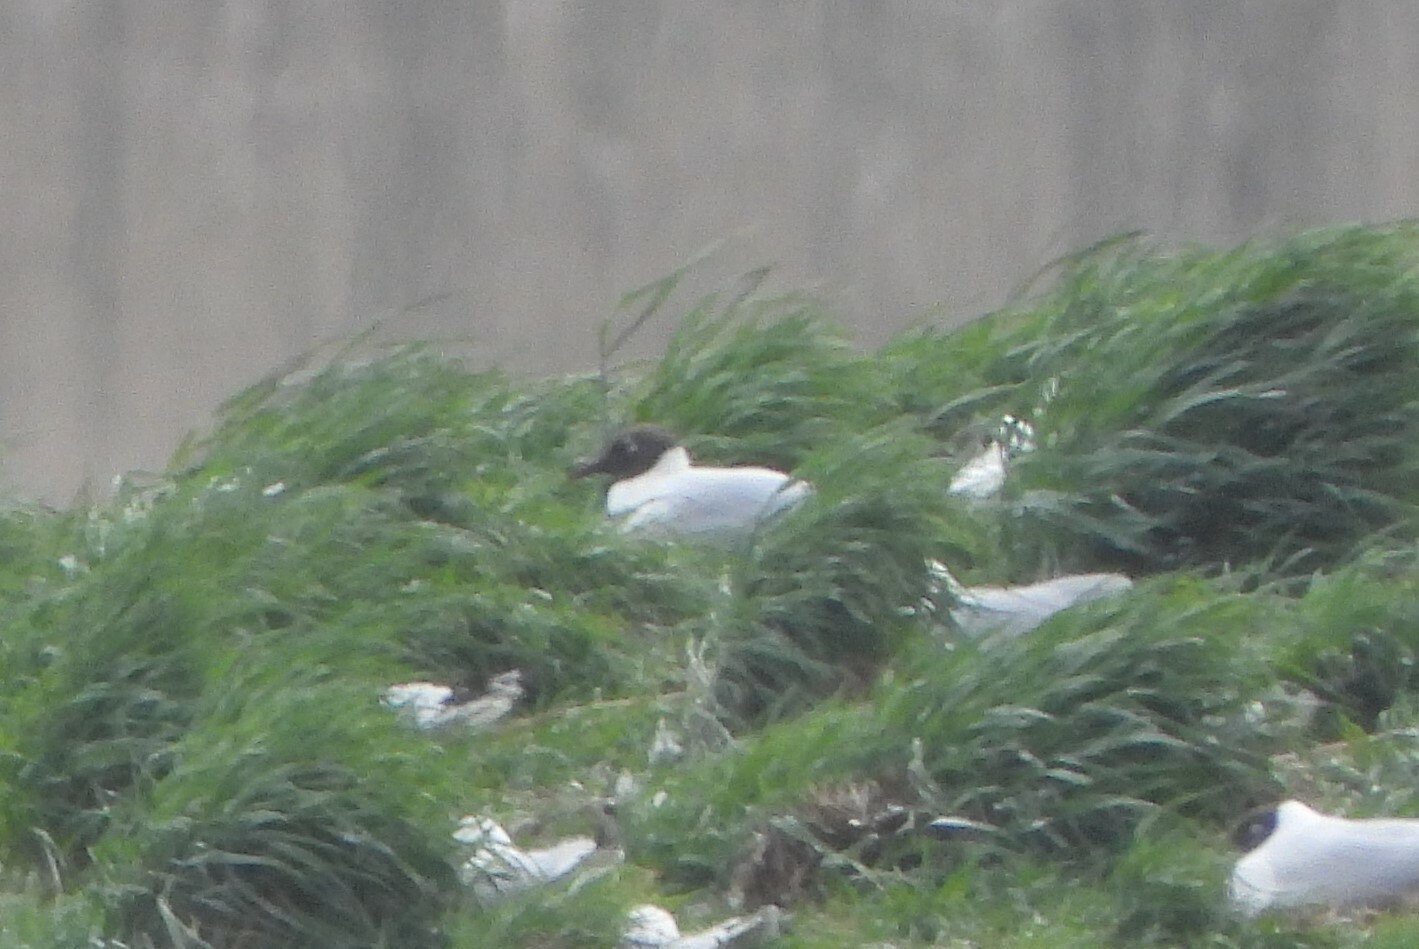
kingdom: Animalia
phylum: Chordata
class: Aves
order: Charadriiformes
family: Laridae
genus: Chroicocephalus
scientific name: Chroicocephalus ridibundus
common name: Black-headed gull
